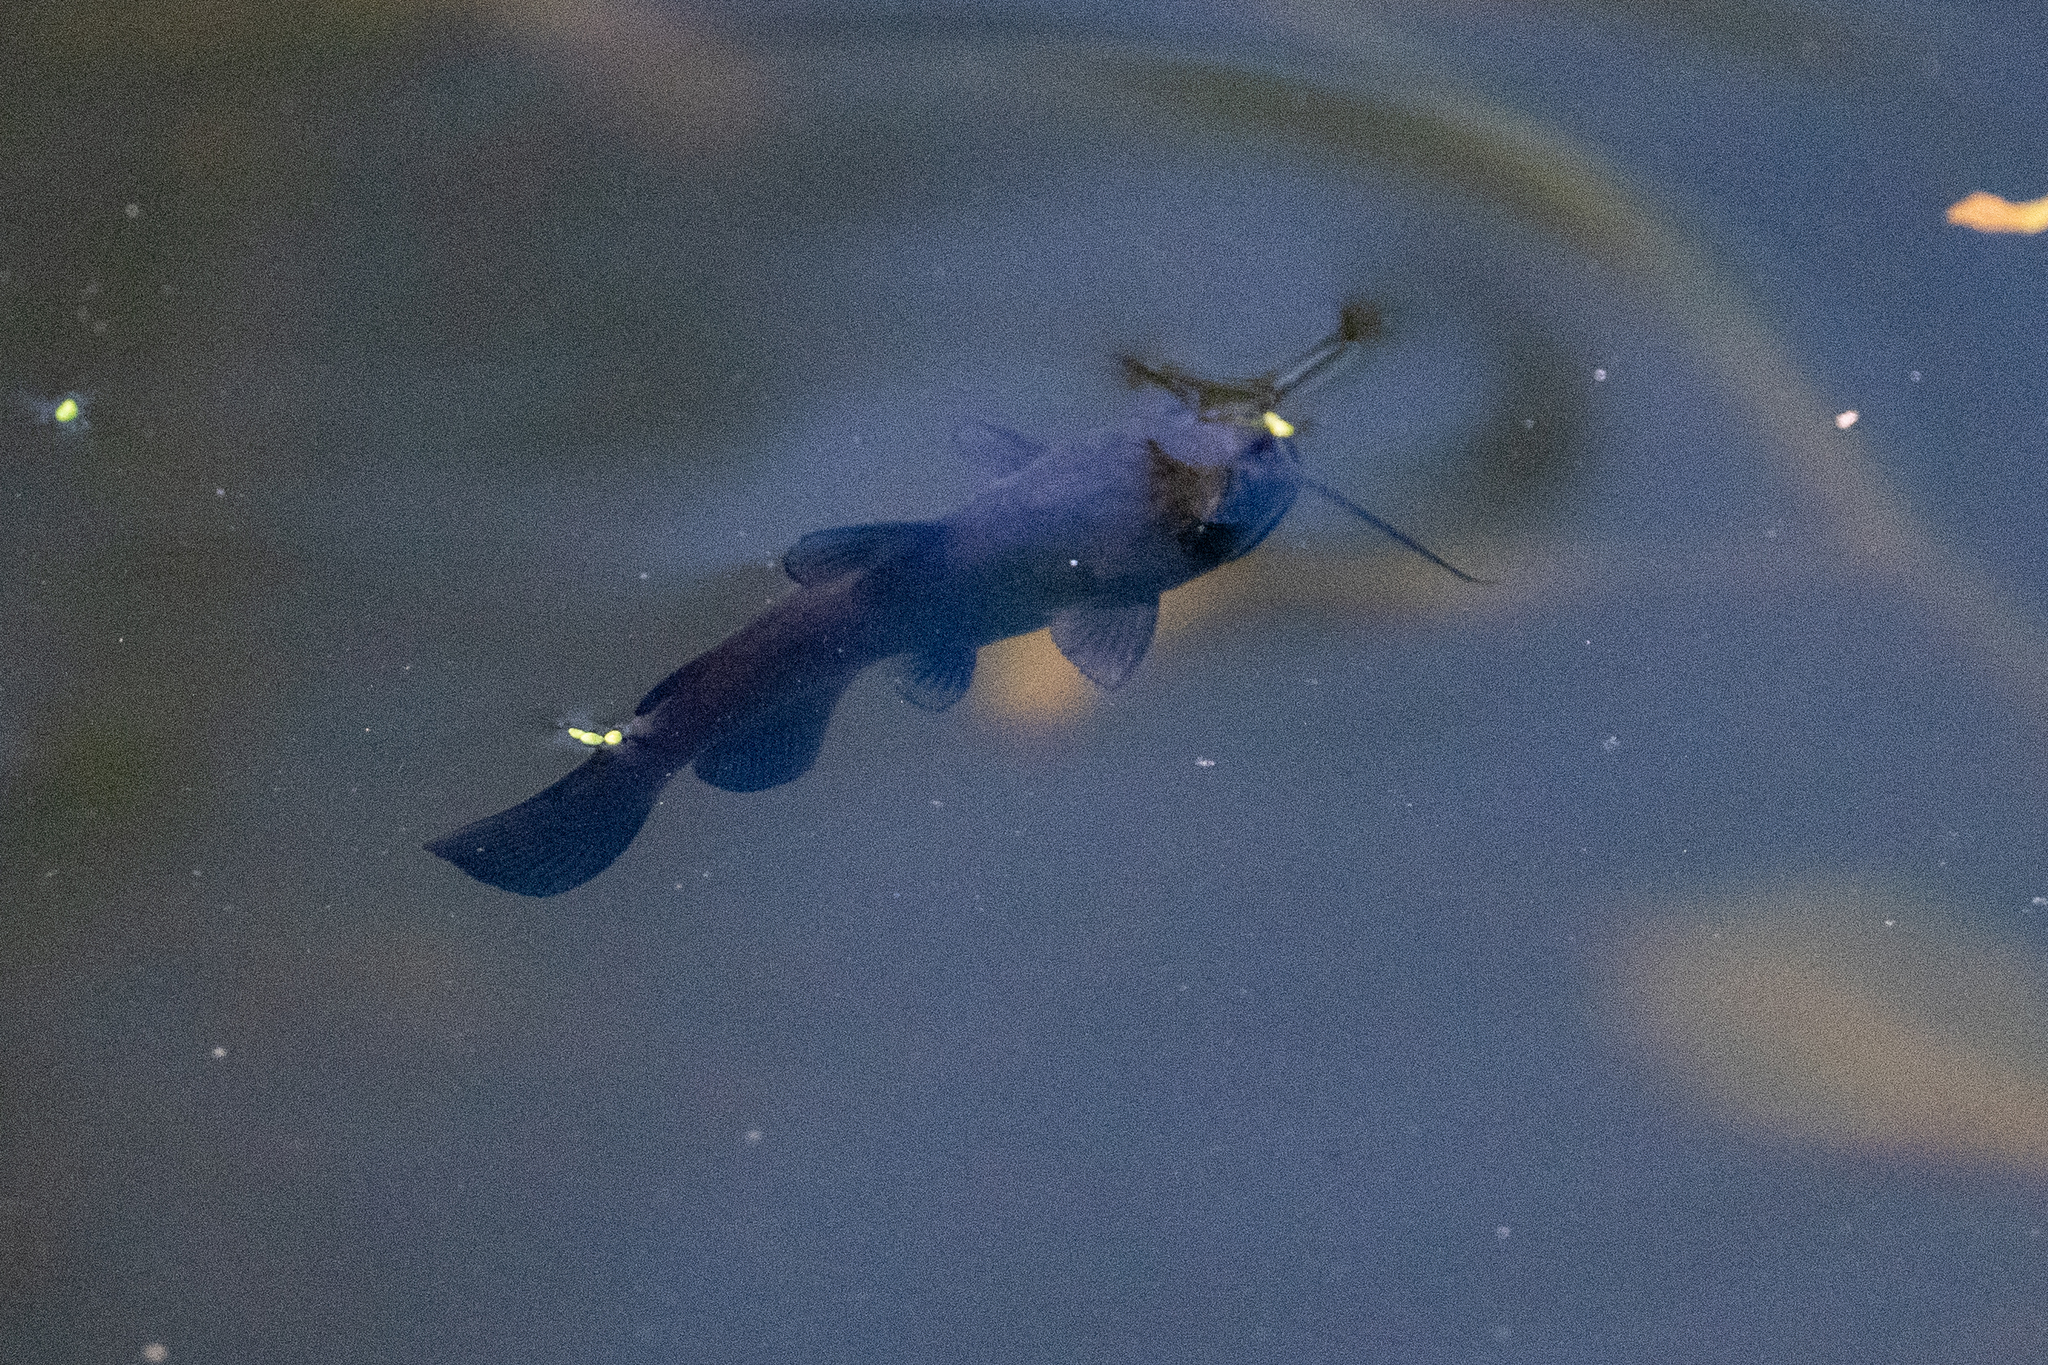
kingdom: Animalia
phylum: Chordata
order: Siluriformes
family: Ictaluridae
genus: Ameiurus
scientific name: Ameiurus melas
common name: Black bullhead
